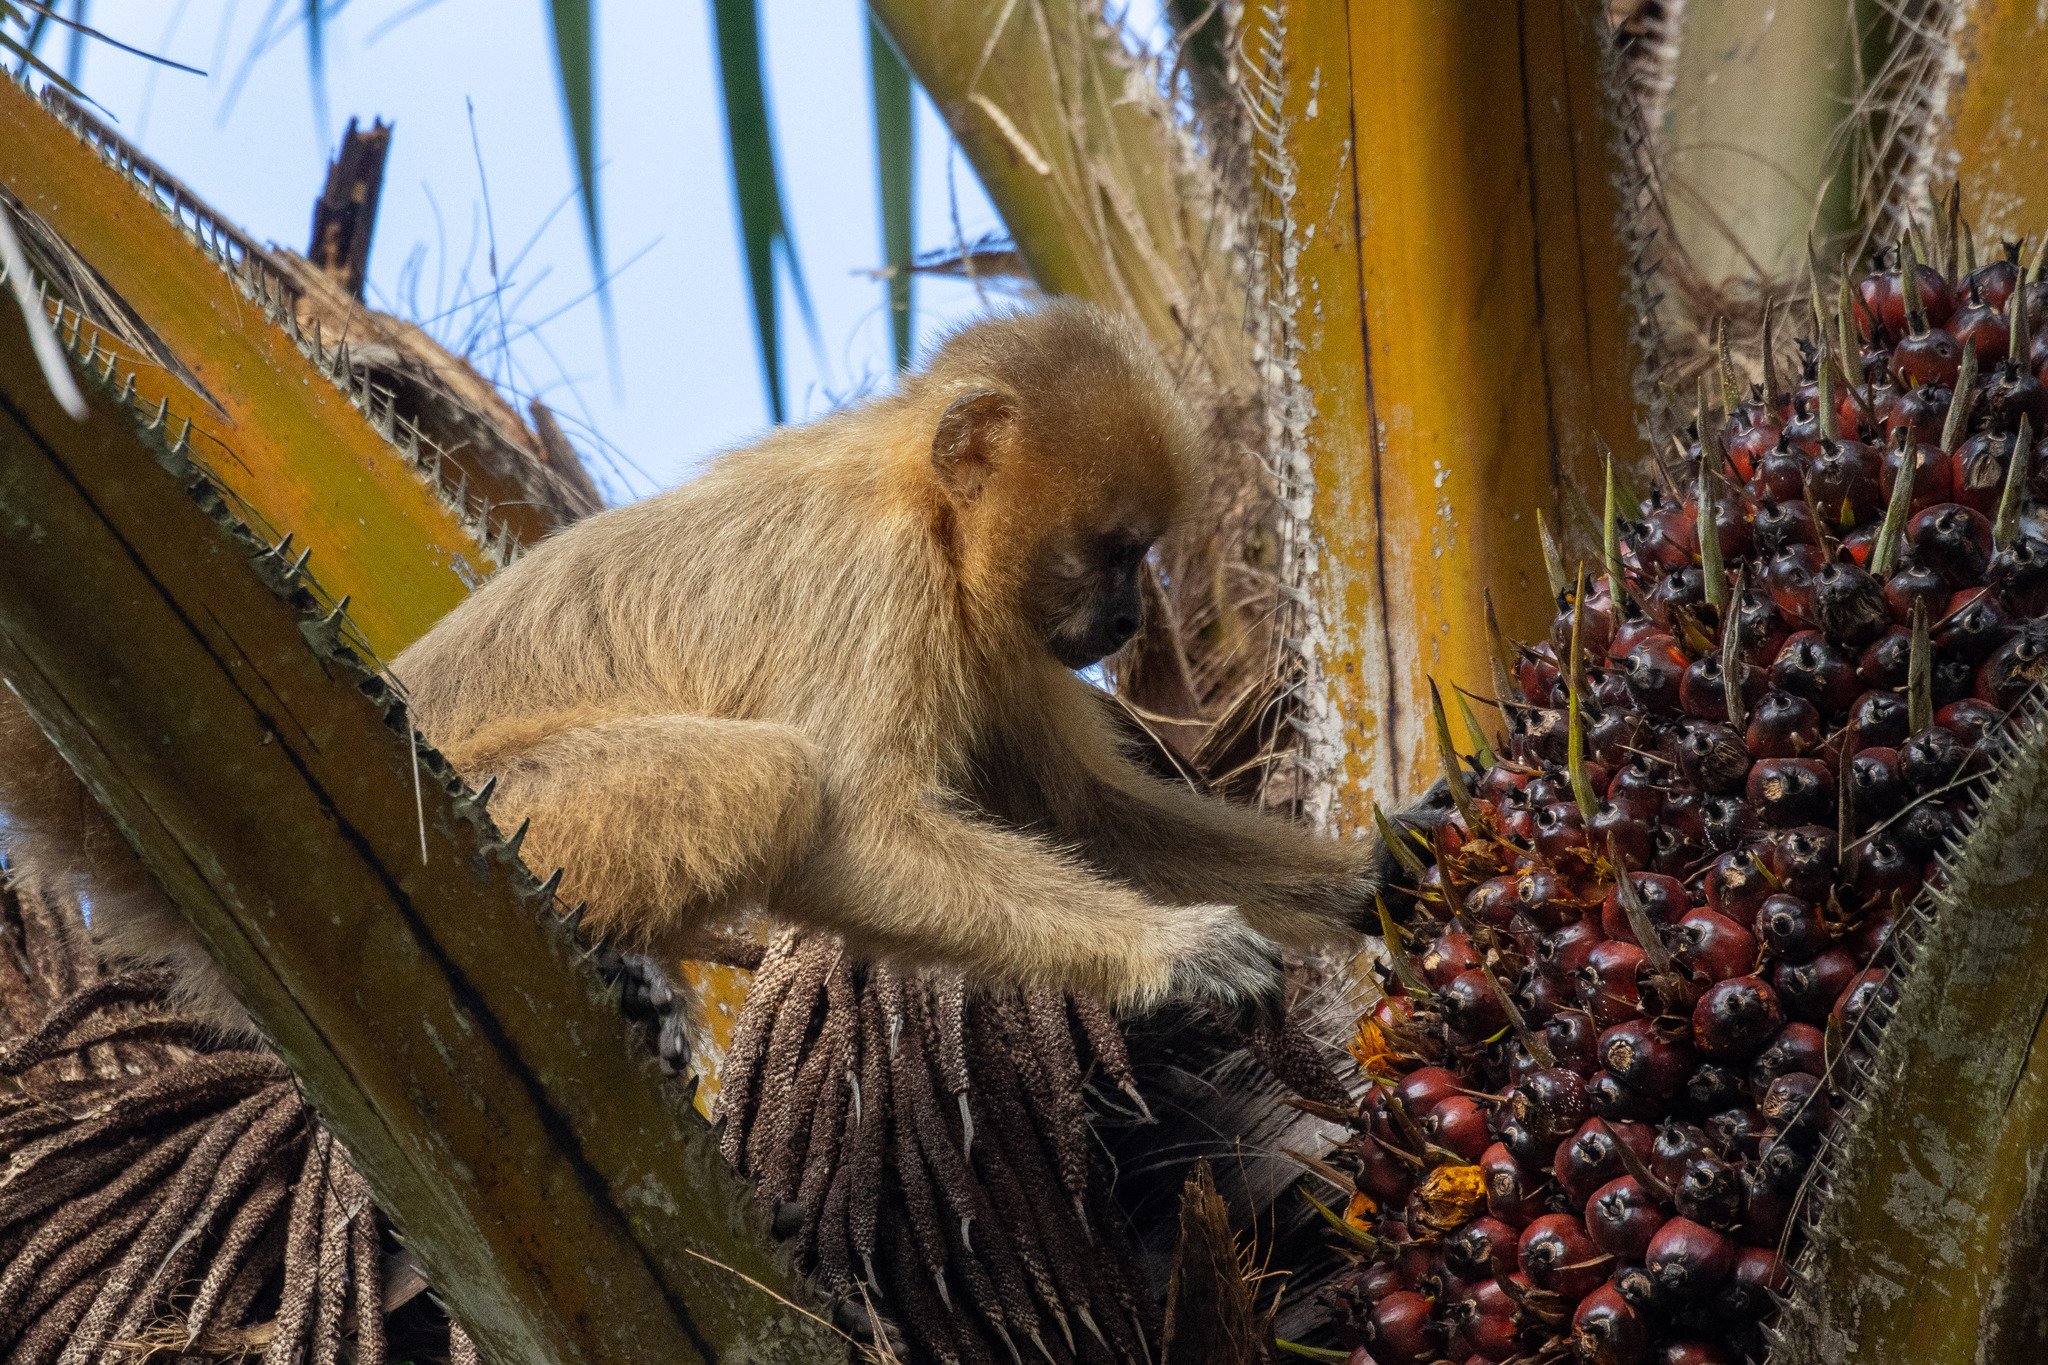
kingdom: Animalia
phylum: Chordata
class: Mammalia
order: Primates
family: Cebidae
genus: Sapajus
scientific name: Sapajus flavius
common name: Blond capuchin
